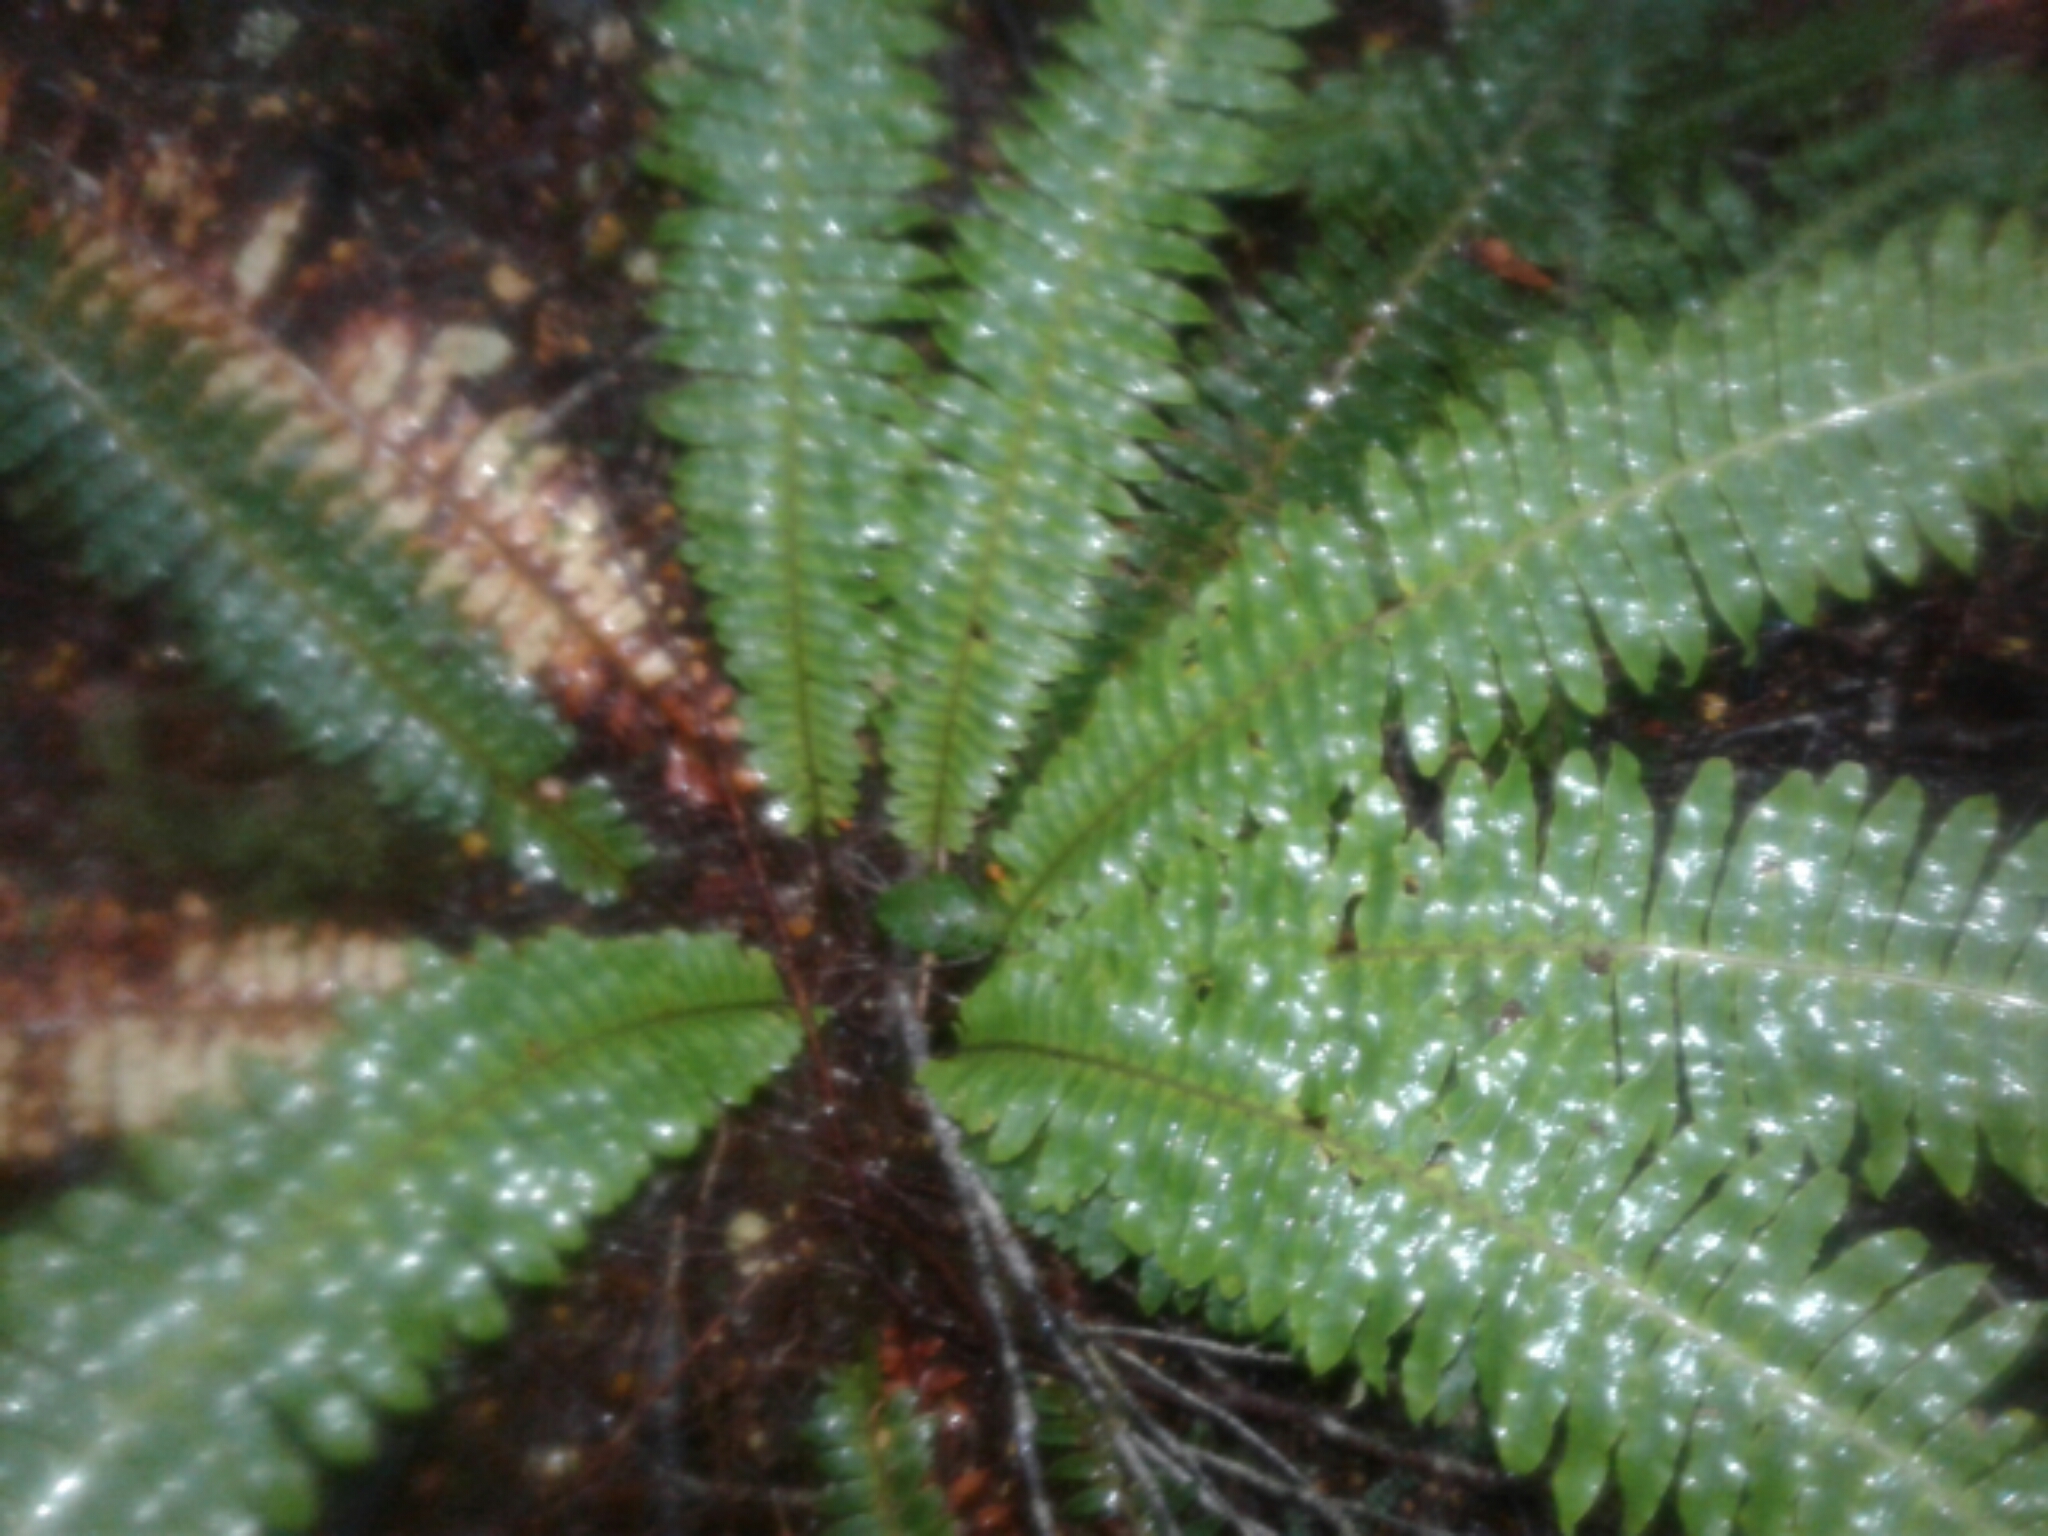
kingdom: Plantae
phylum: Tracheophyta
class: Polypodiopsida
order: Polypodiales
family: Blechnaceae
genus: Lomaria
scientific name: Lomaria discolor
